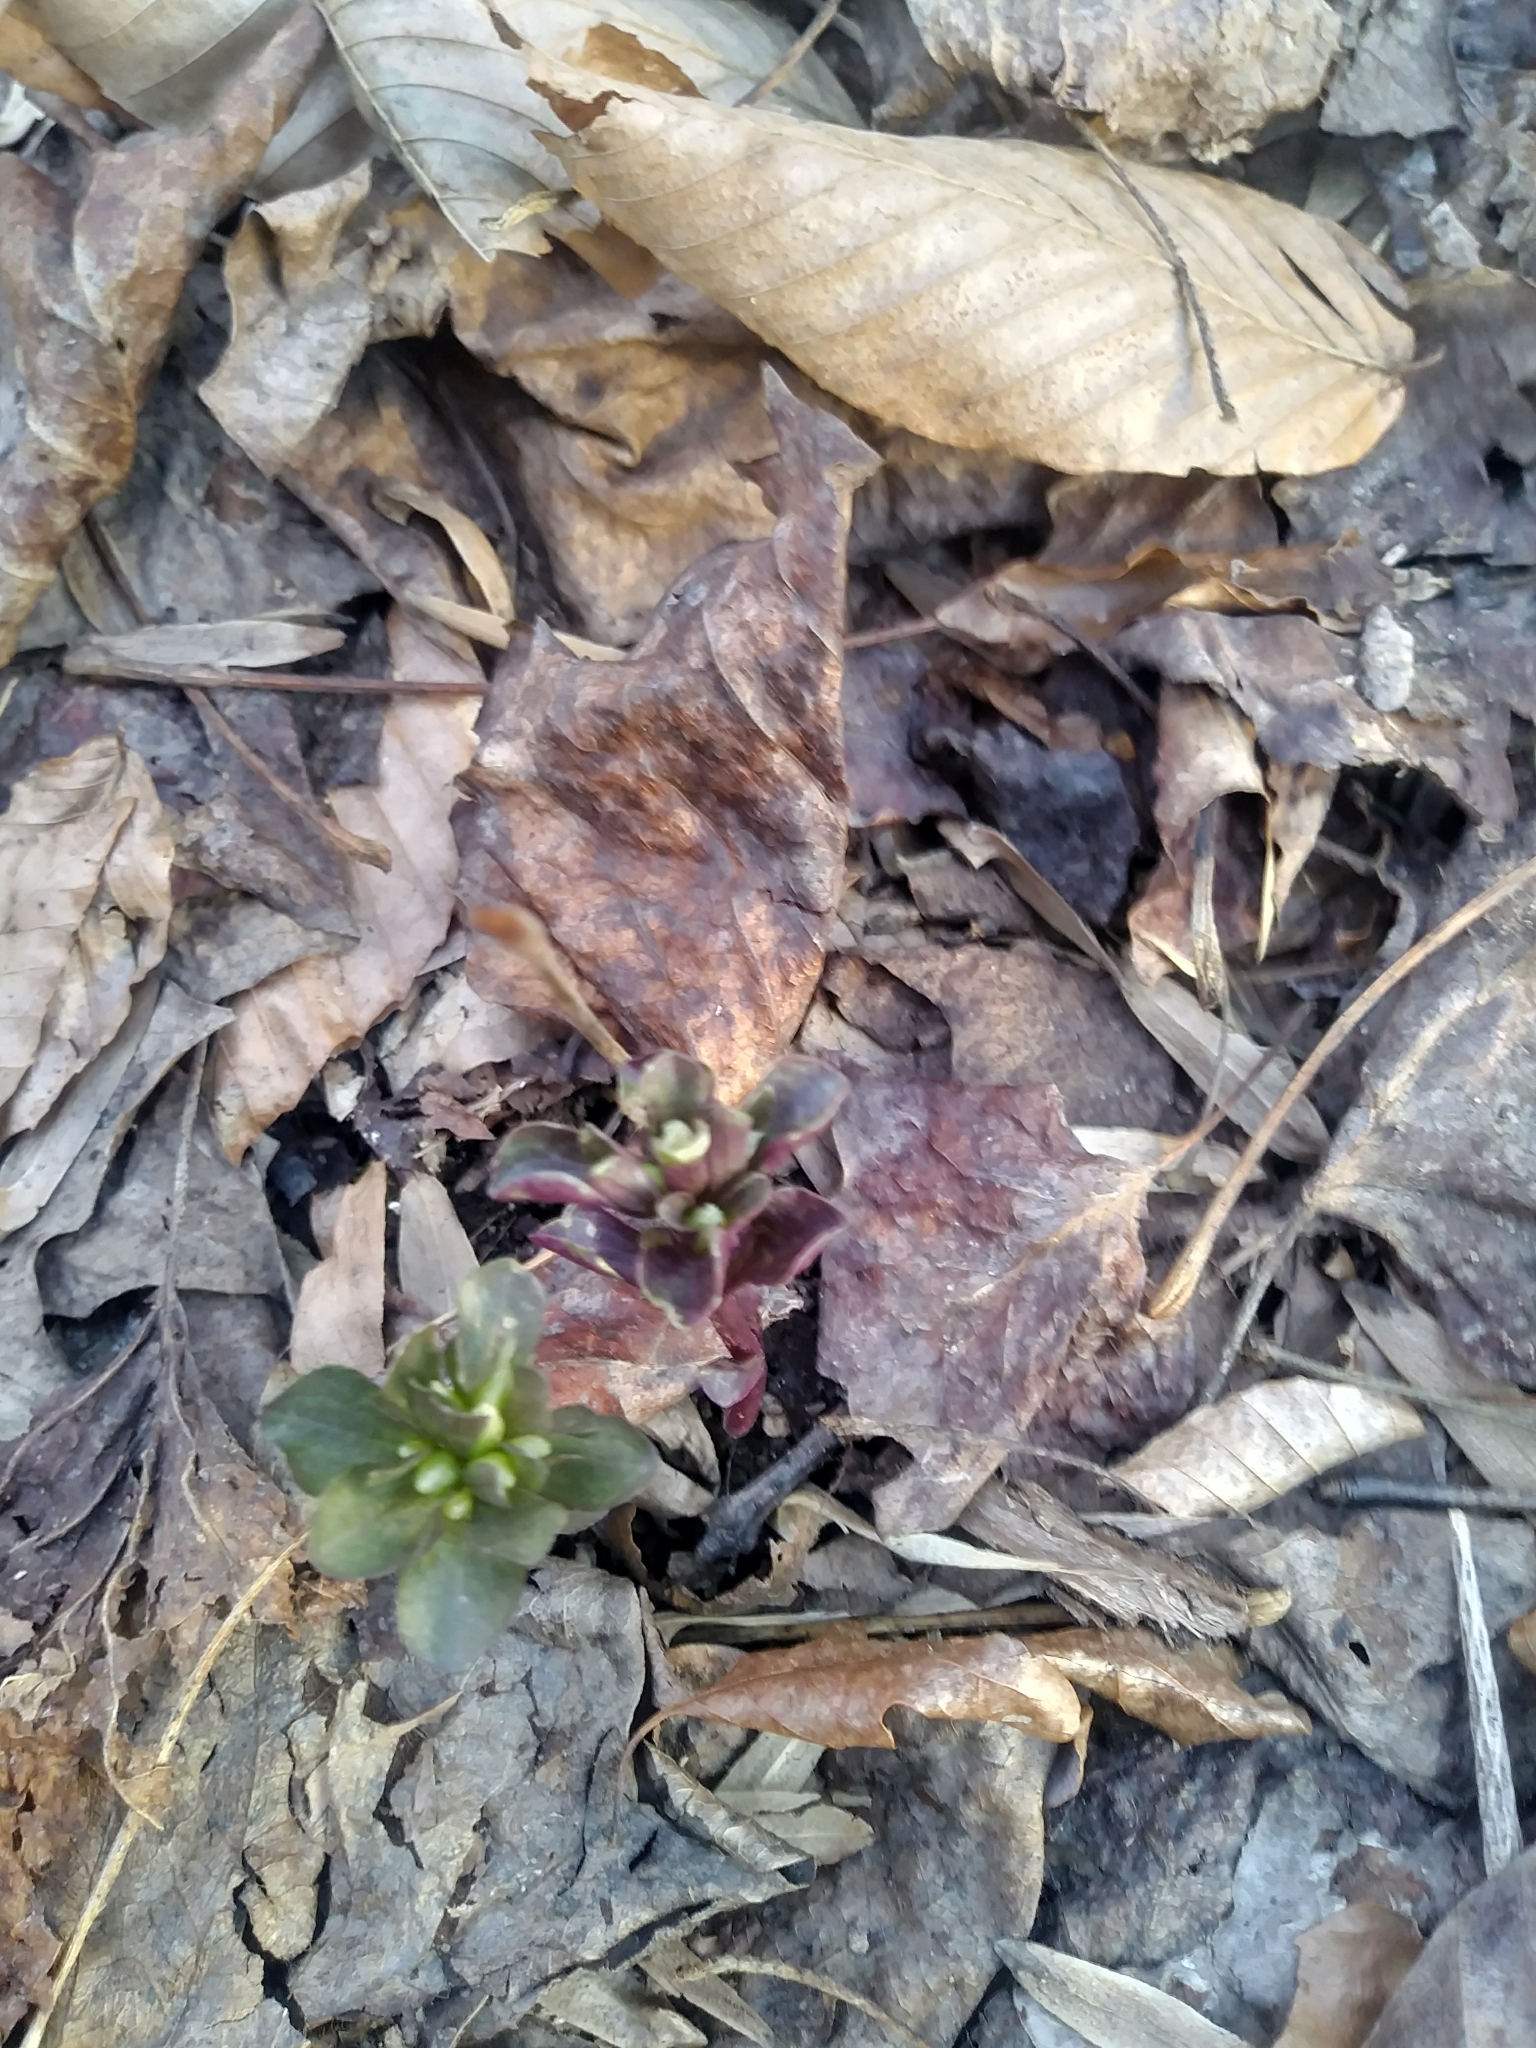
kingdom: Plantae
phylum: Tracheophyta
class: Magnoliopsida
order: Gentianales
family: Gentianaceae
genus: Obolaria
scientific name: Obolaria virginica
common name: Pennywort
